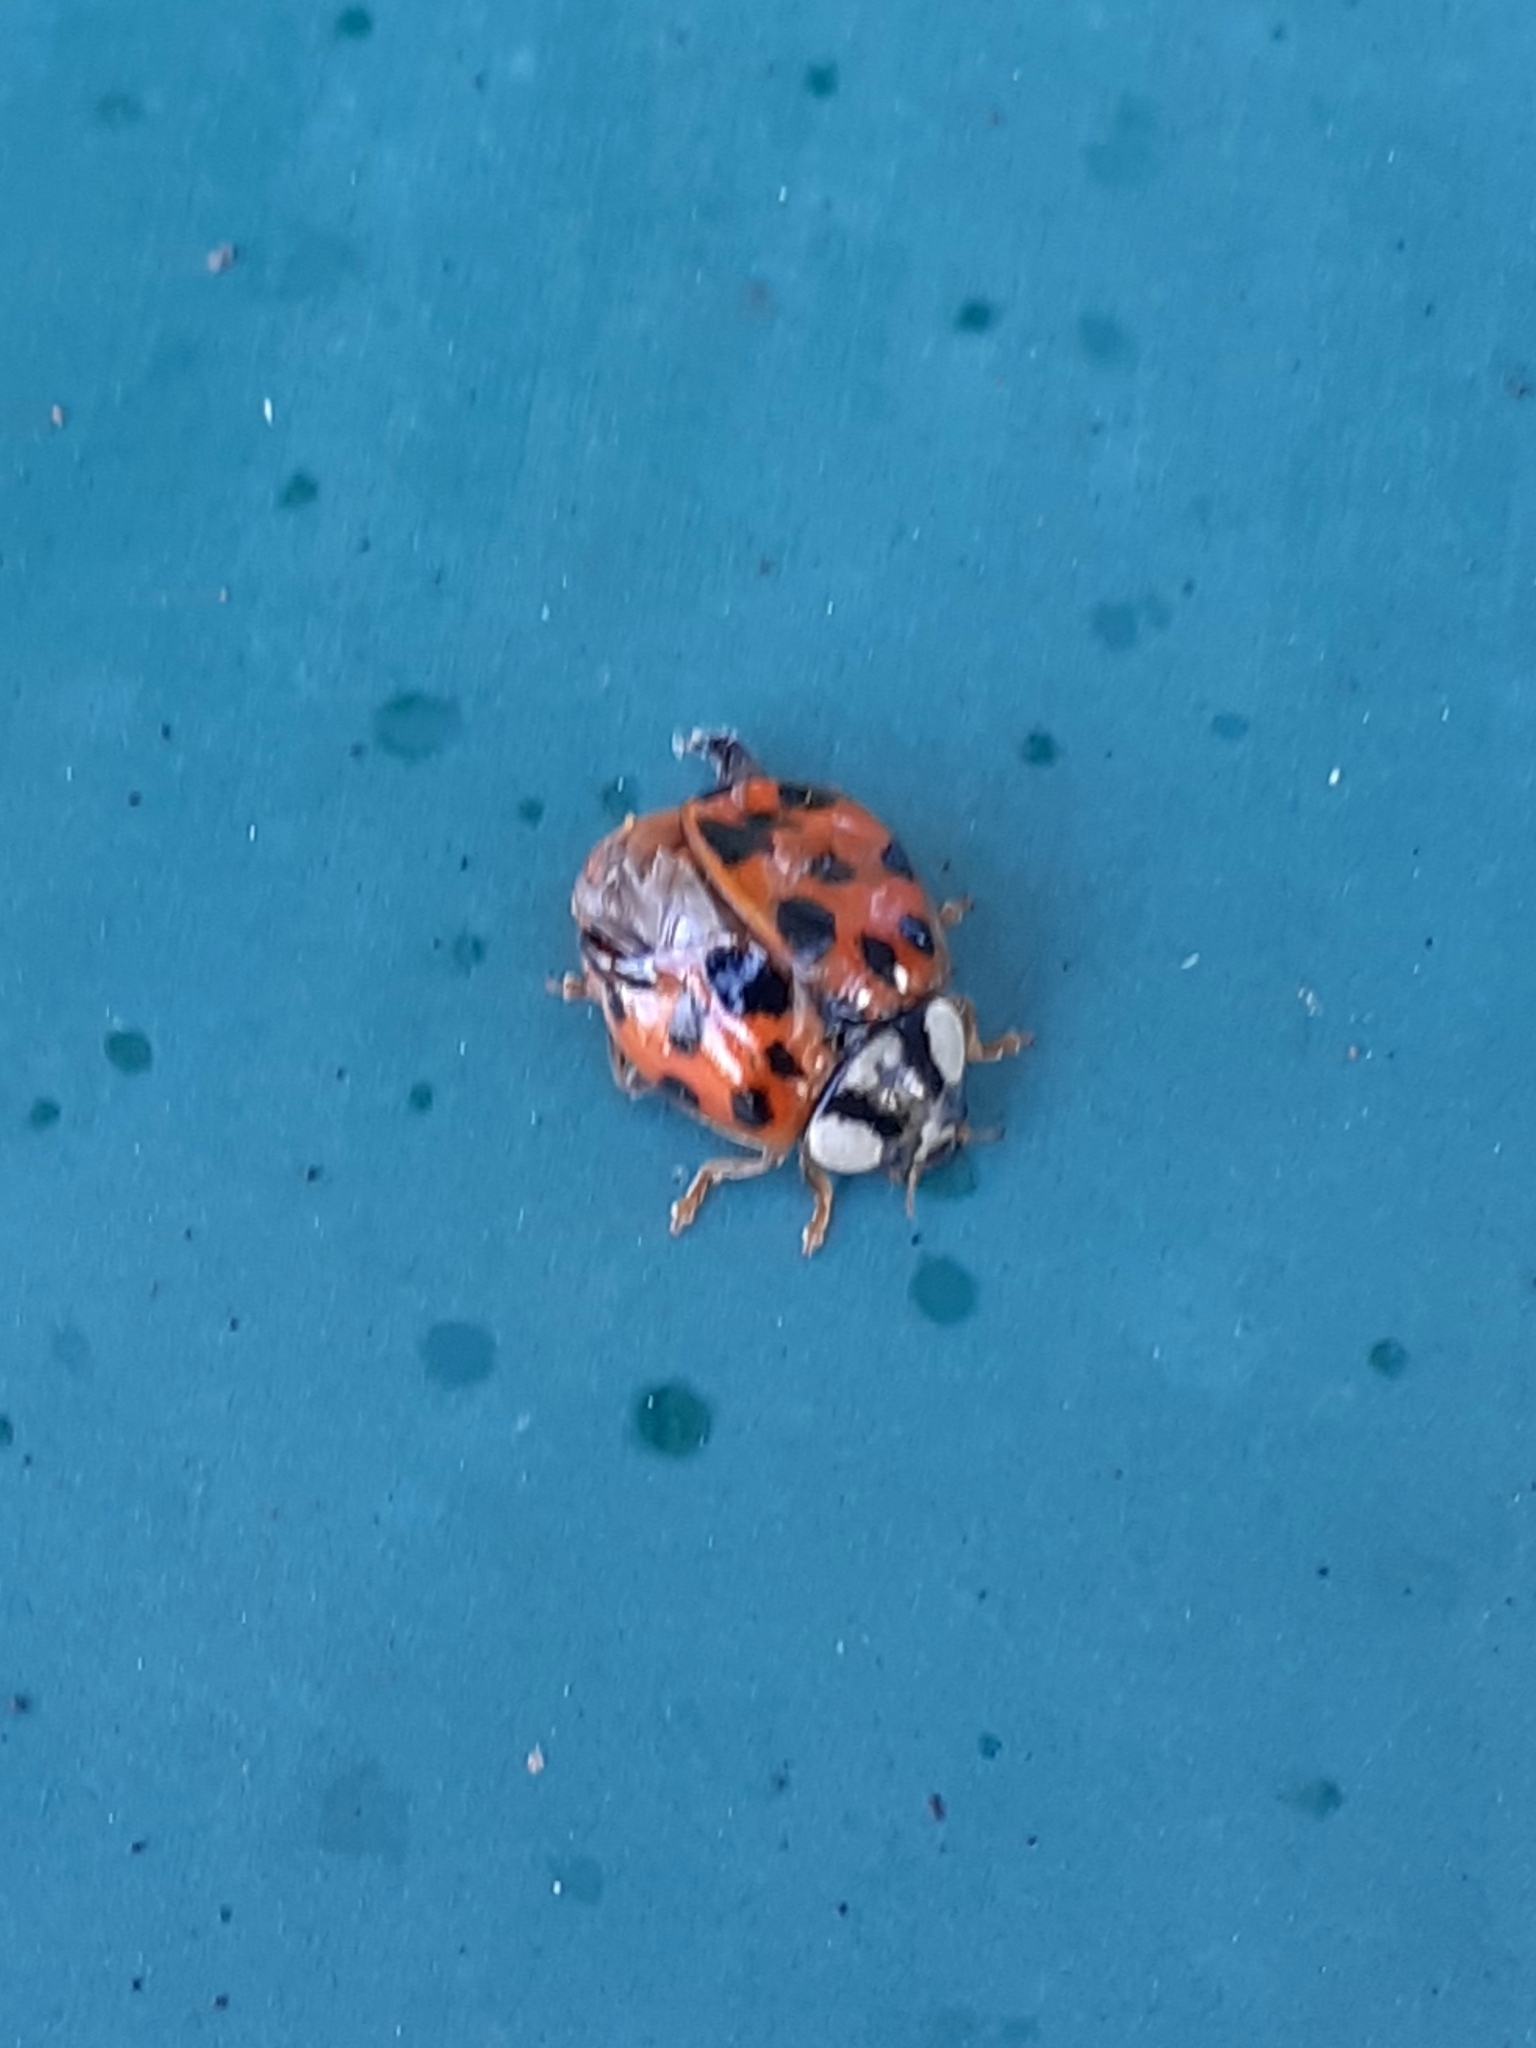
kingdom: Animalia
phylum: Arthropoda
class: Insecta
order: Coleoptera
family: Coccinellidae
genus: Harmonia
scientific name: Harmonia axyridis
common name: Harlequin ladybird
